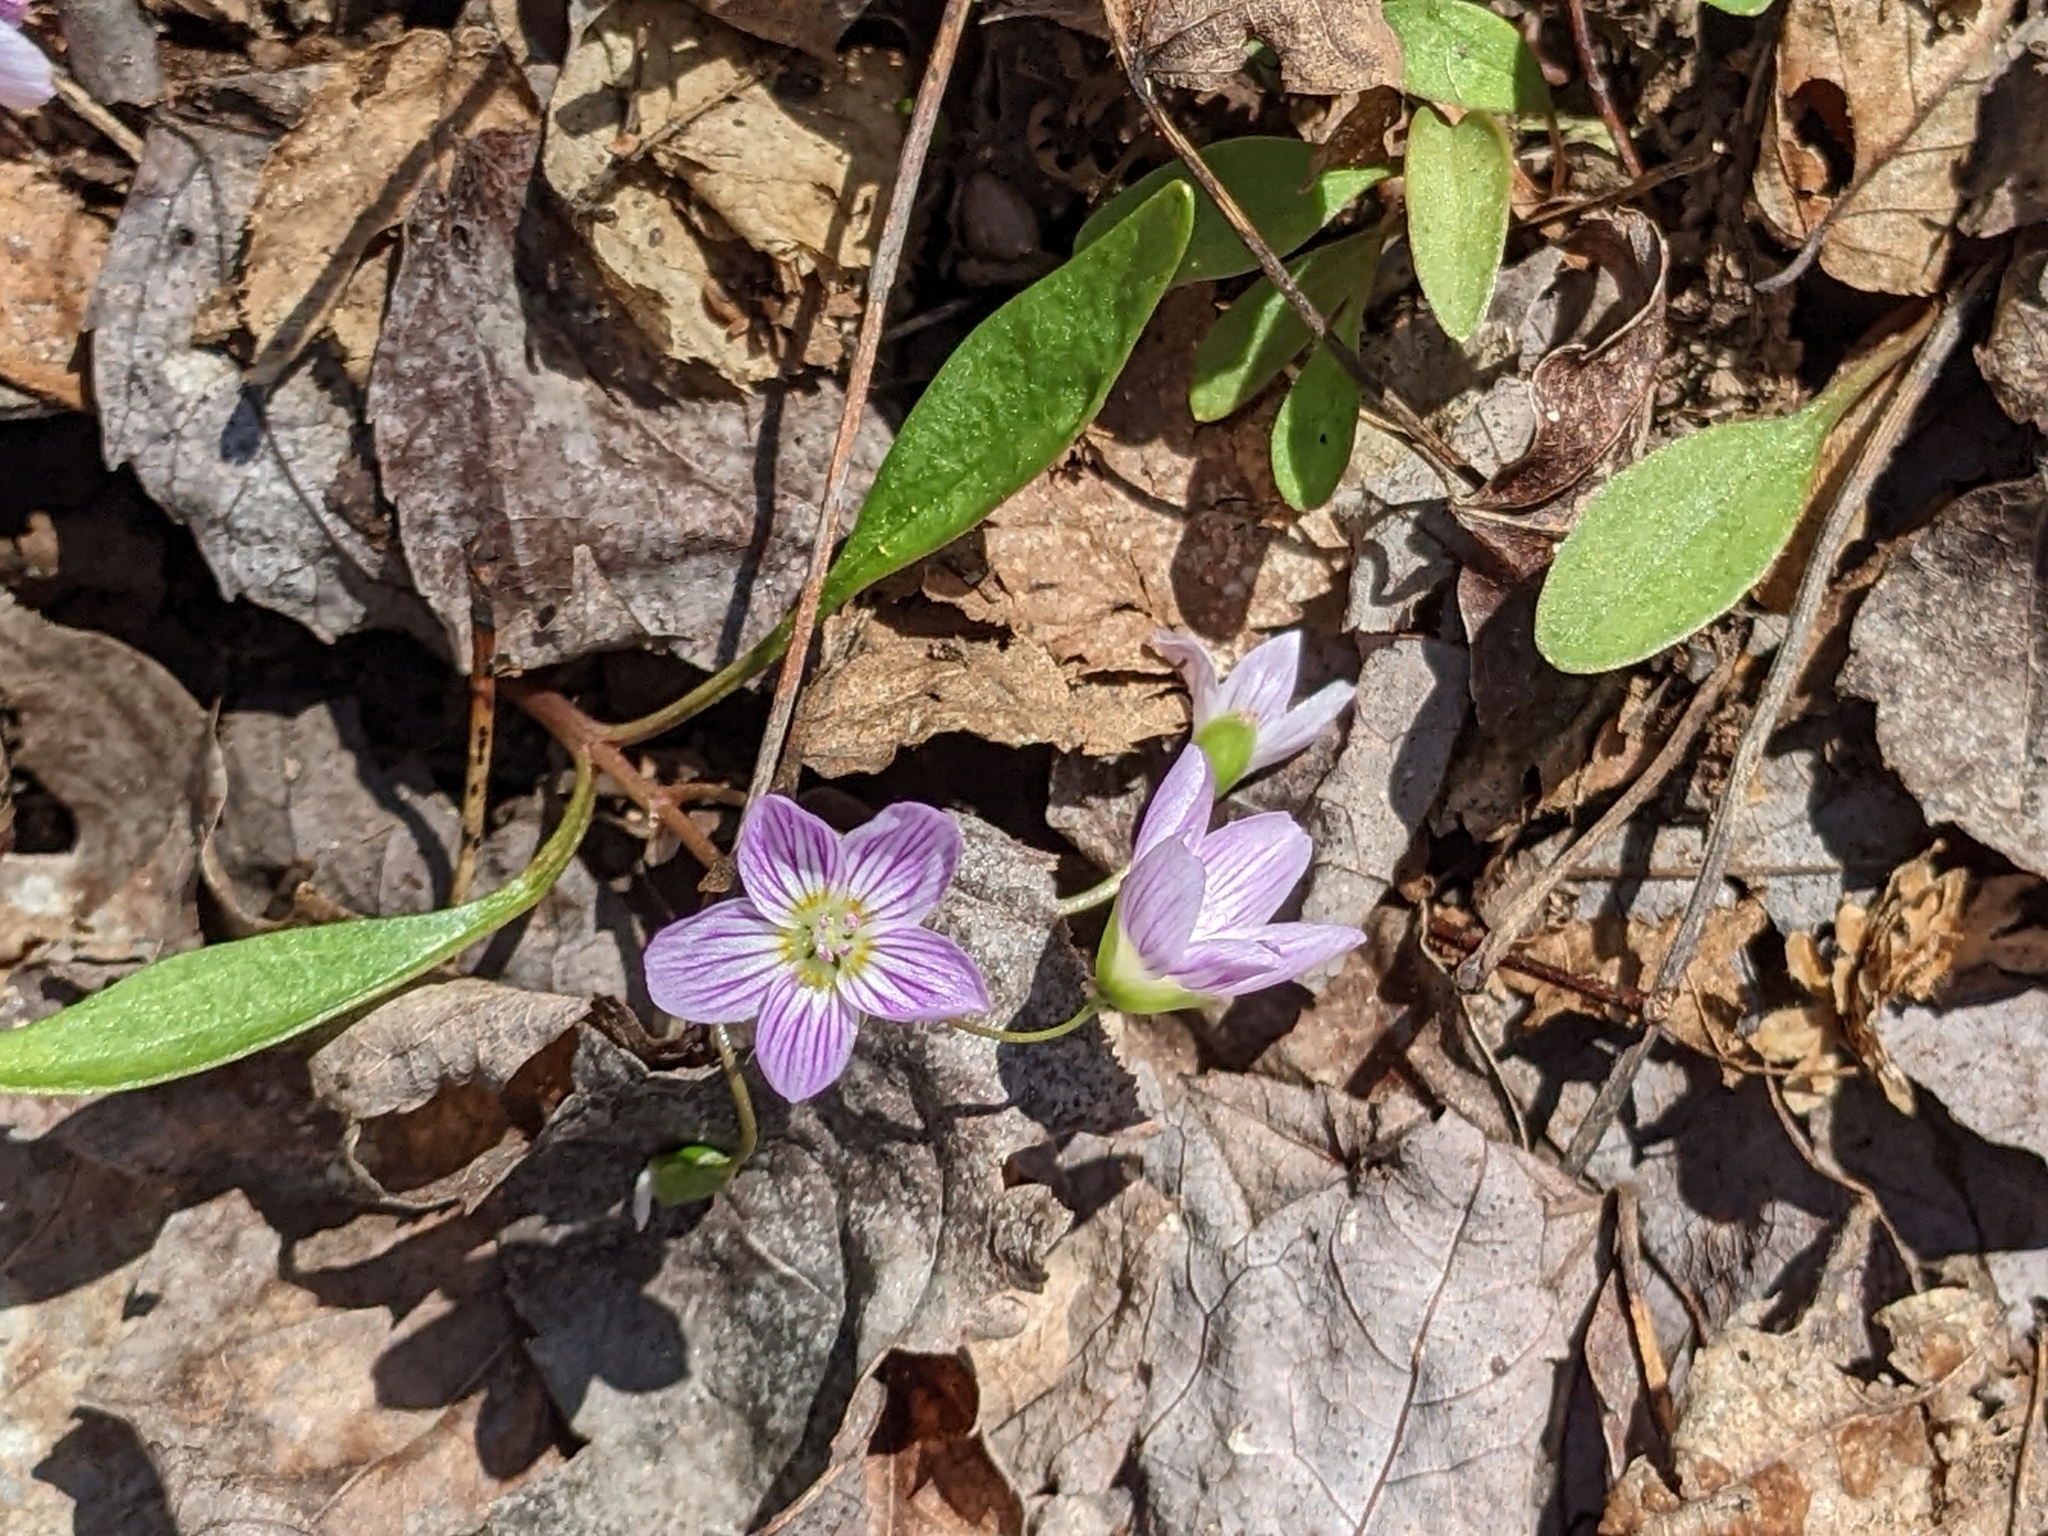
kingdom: Plantae
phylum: Tracheophyta
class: Magnoliopsida
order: Caryophyllales
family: Montiaceae
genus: Claytonia
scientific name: Claytonia caroliniana
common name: Carolina spring beauty
